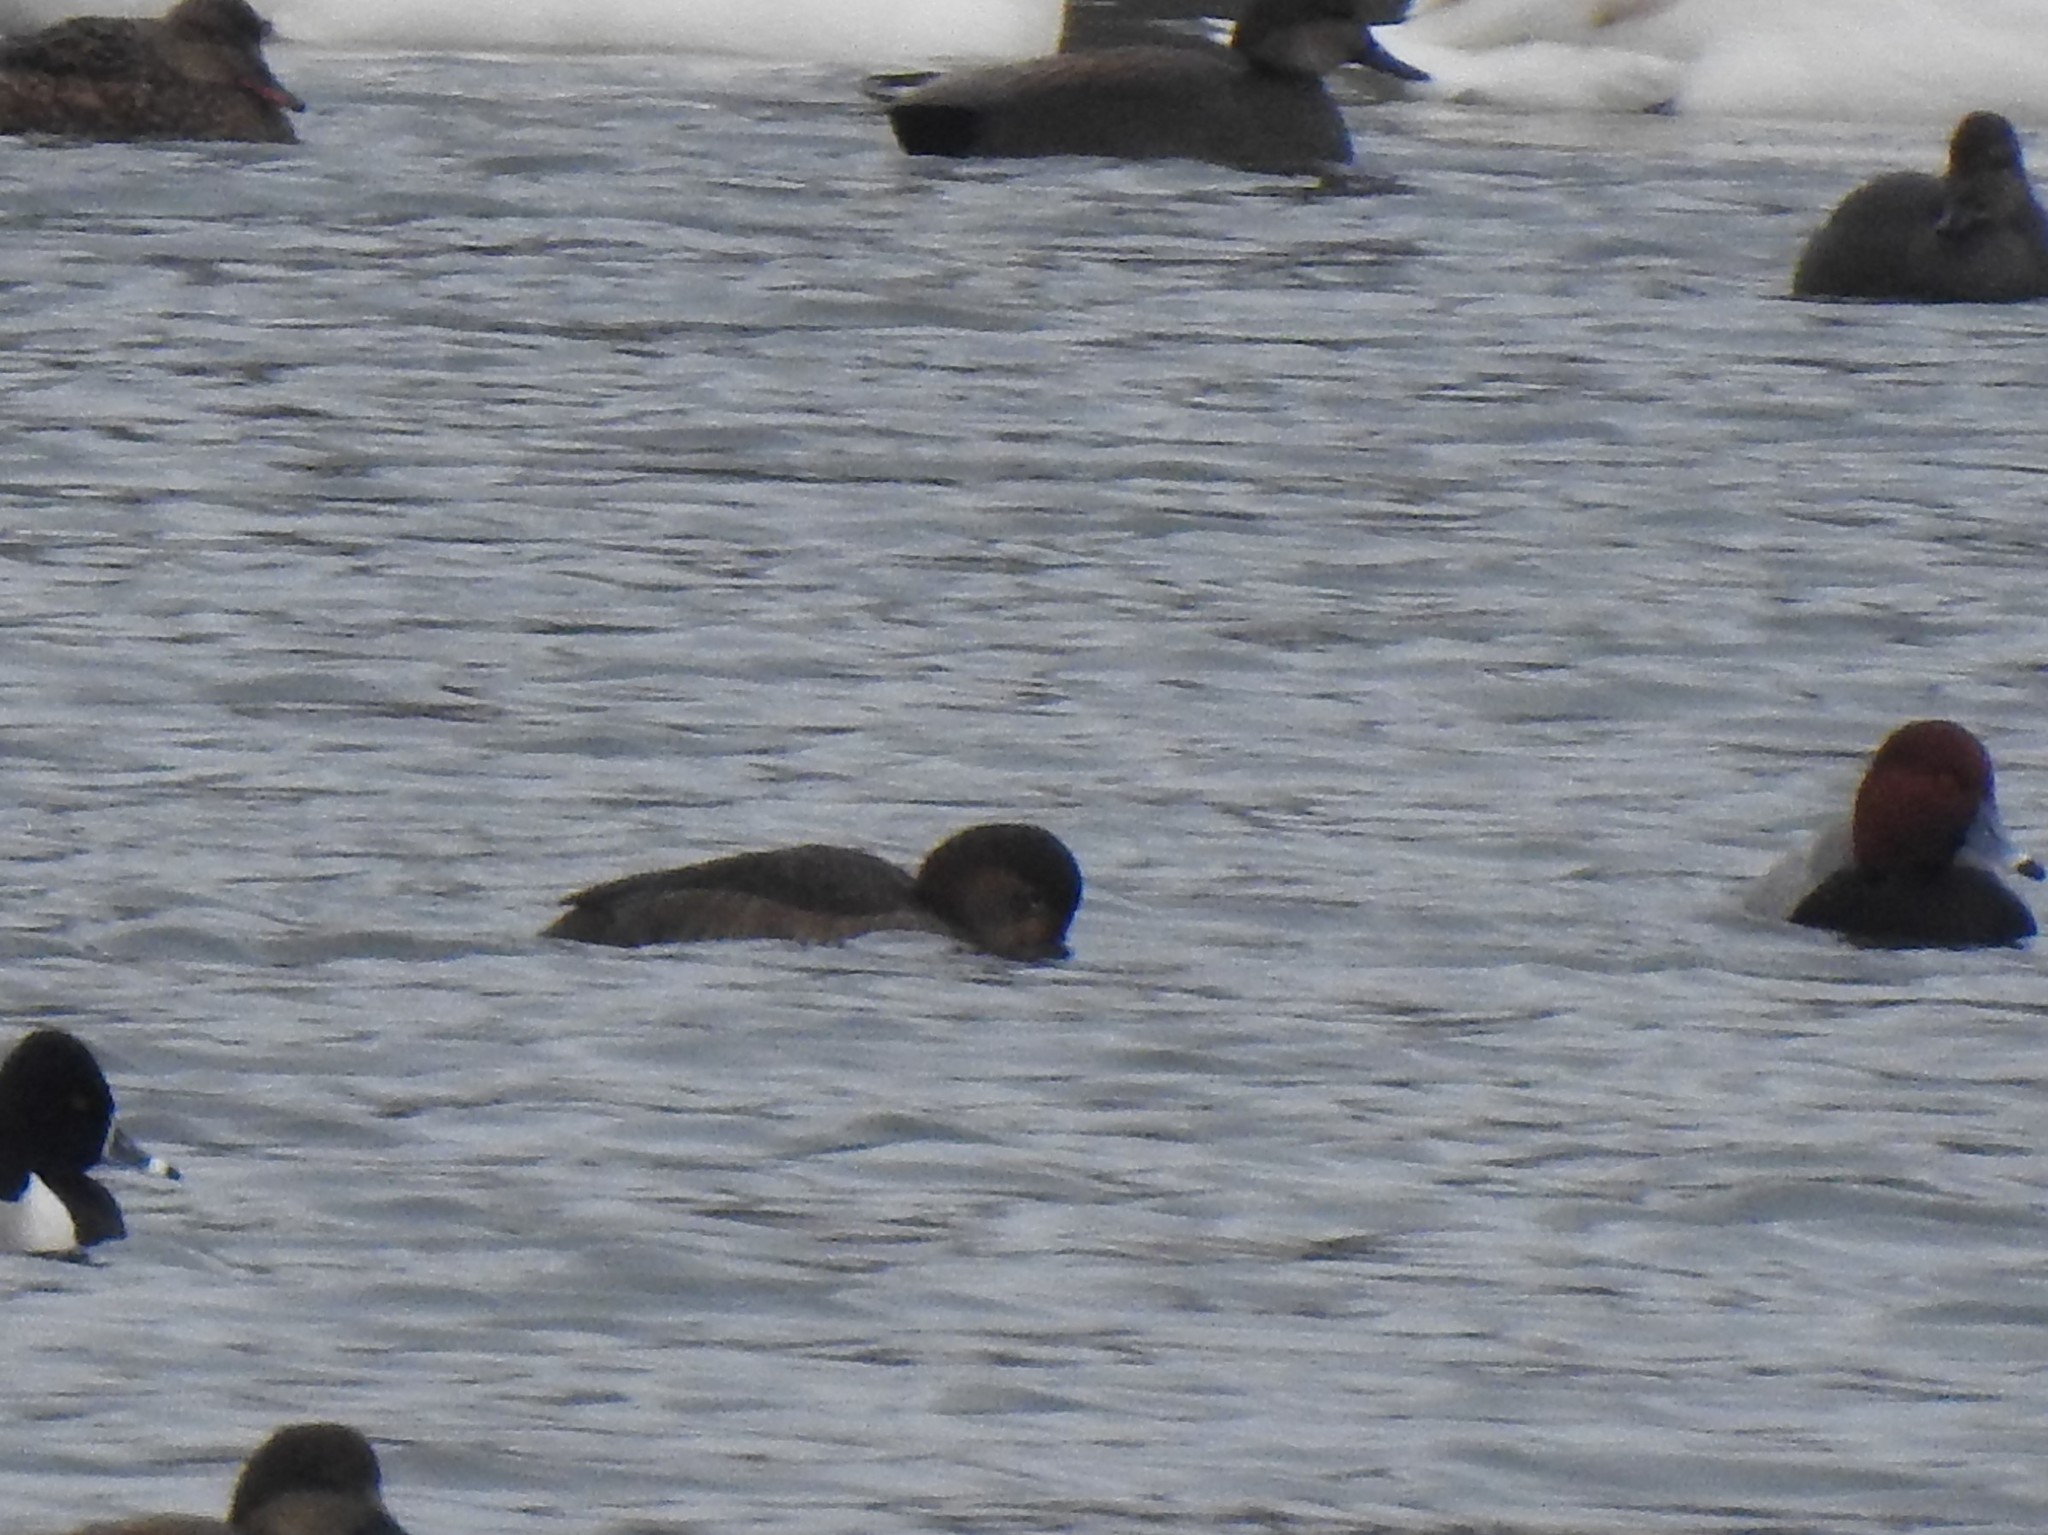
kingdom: Animalia
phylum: Chordata
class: Aves
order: Anseriformes
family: Anatidae
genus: Aythya
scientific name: Aythya americana
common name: Redhead
